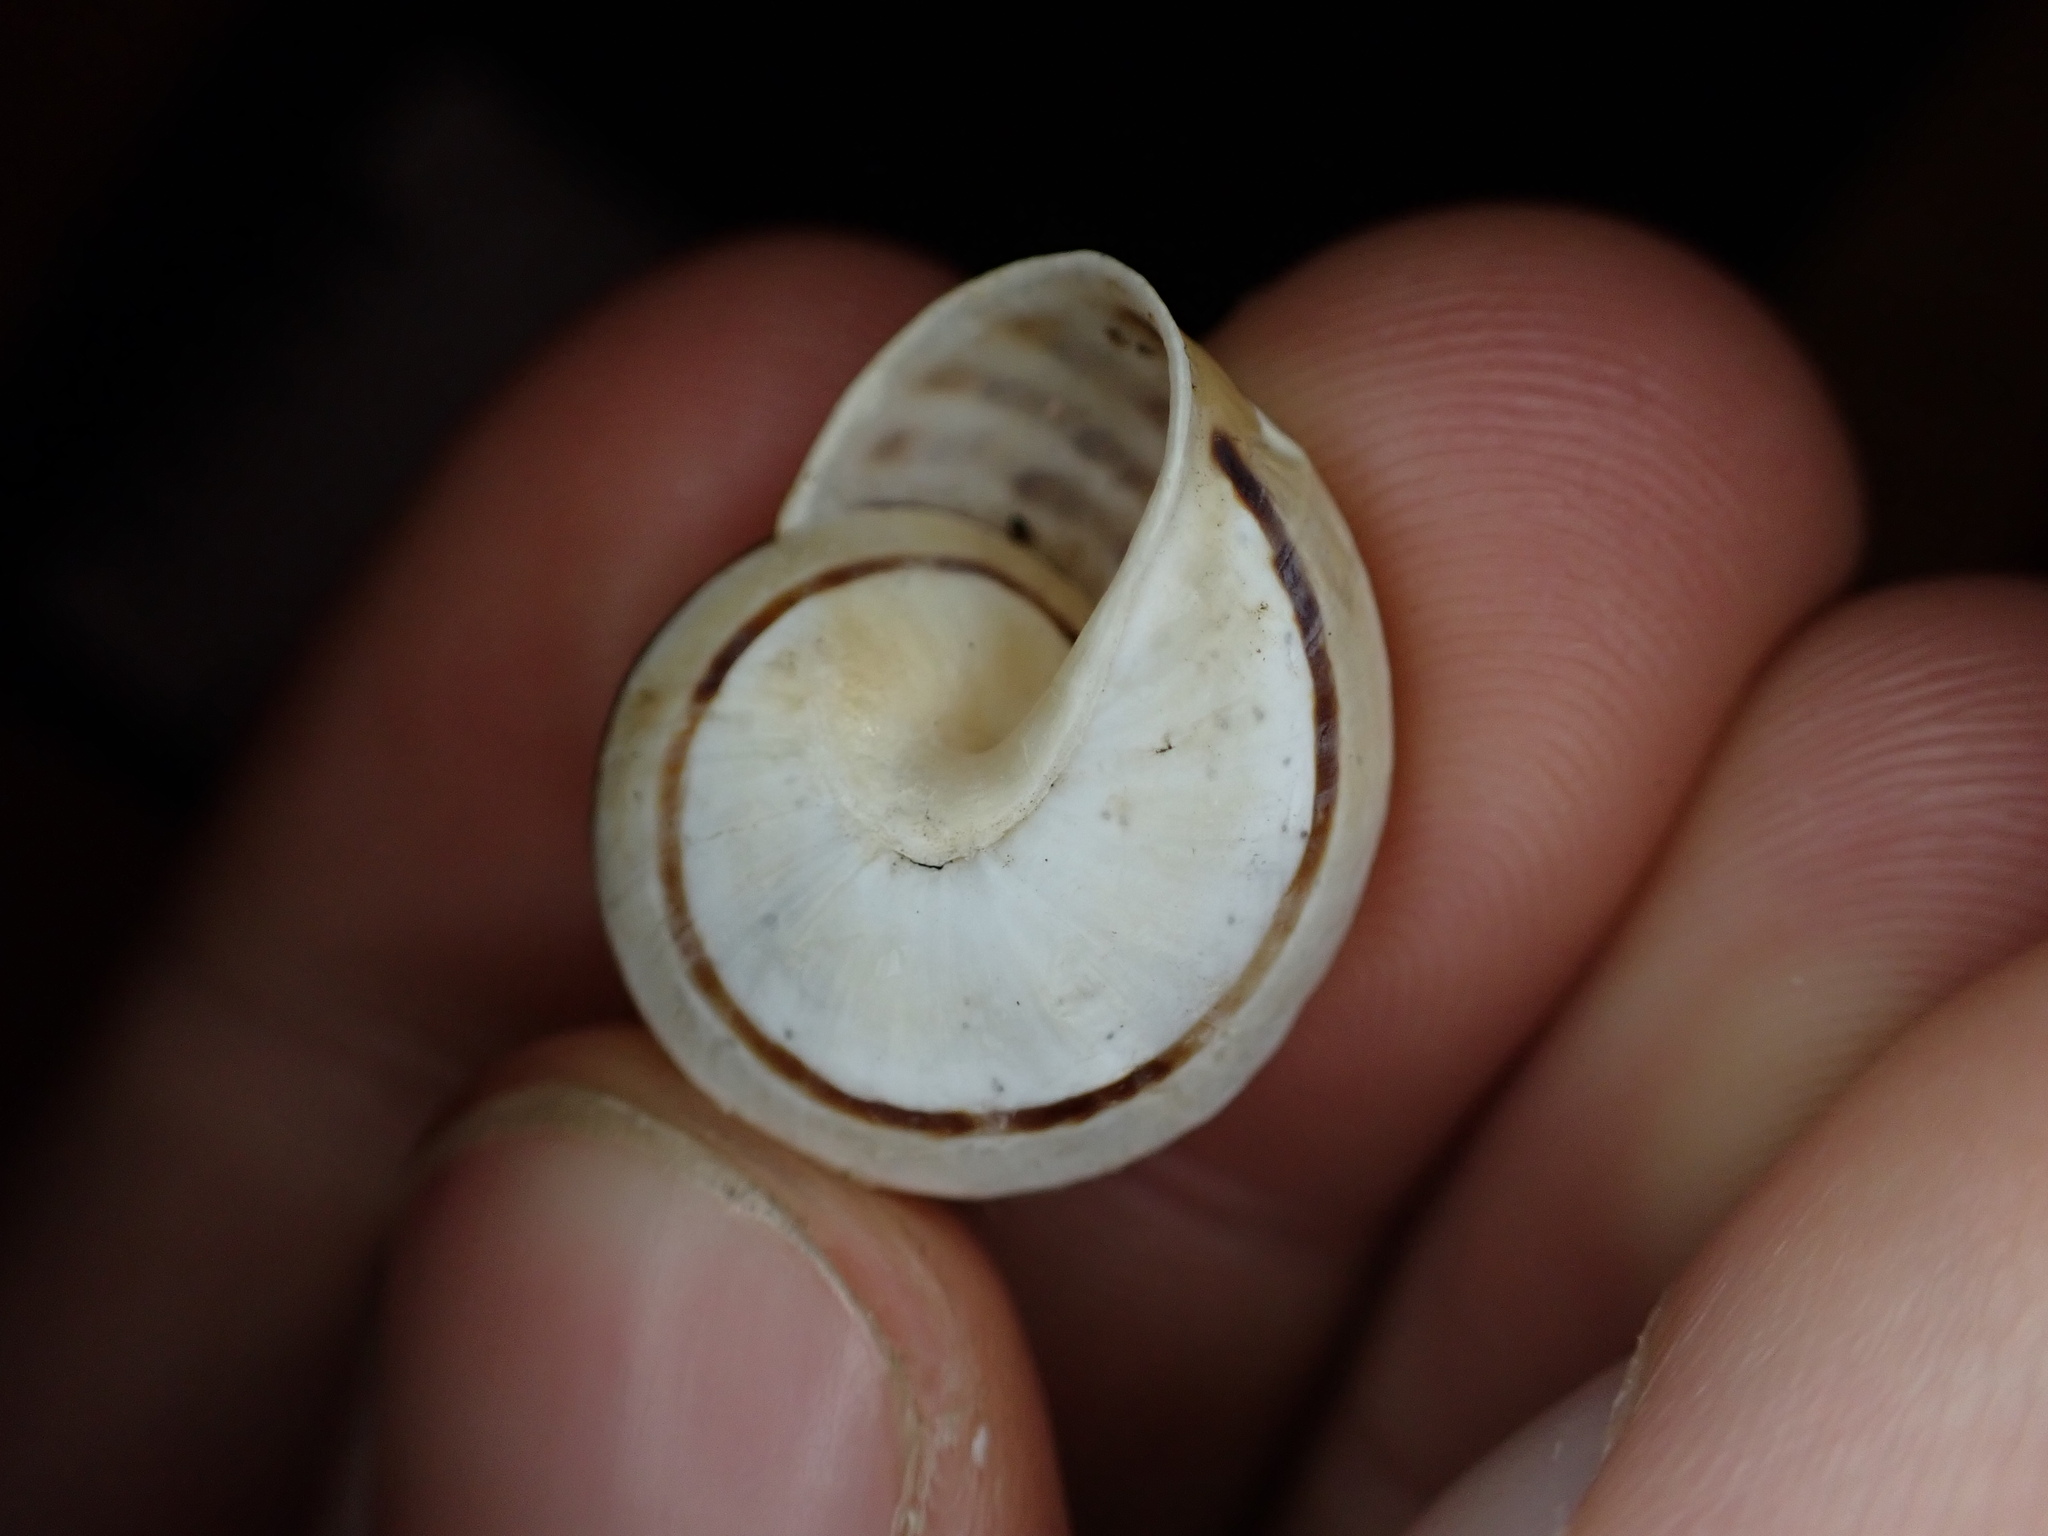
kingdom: Animalia
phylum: Mollusca
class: Gastropoda
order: Stylommatophora
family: Helicidae
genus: Pseudotachea
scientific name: Pseudotachea splendida
